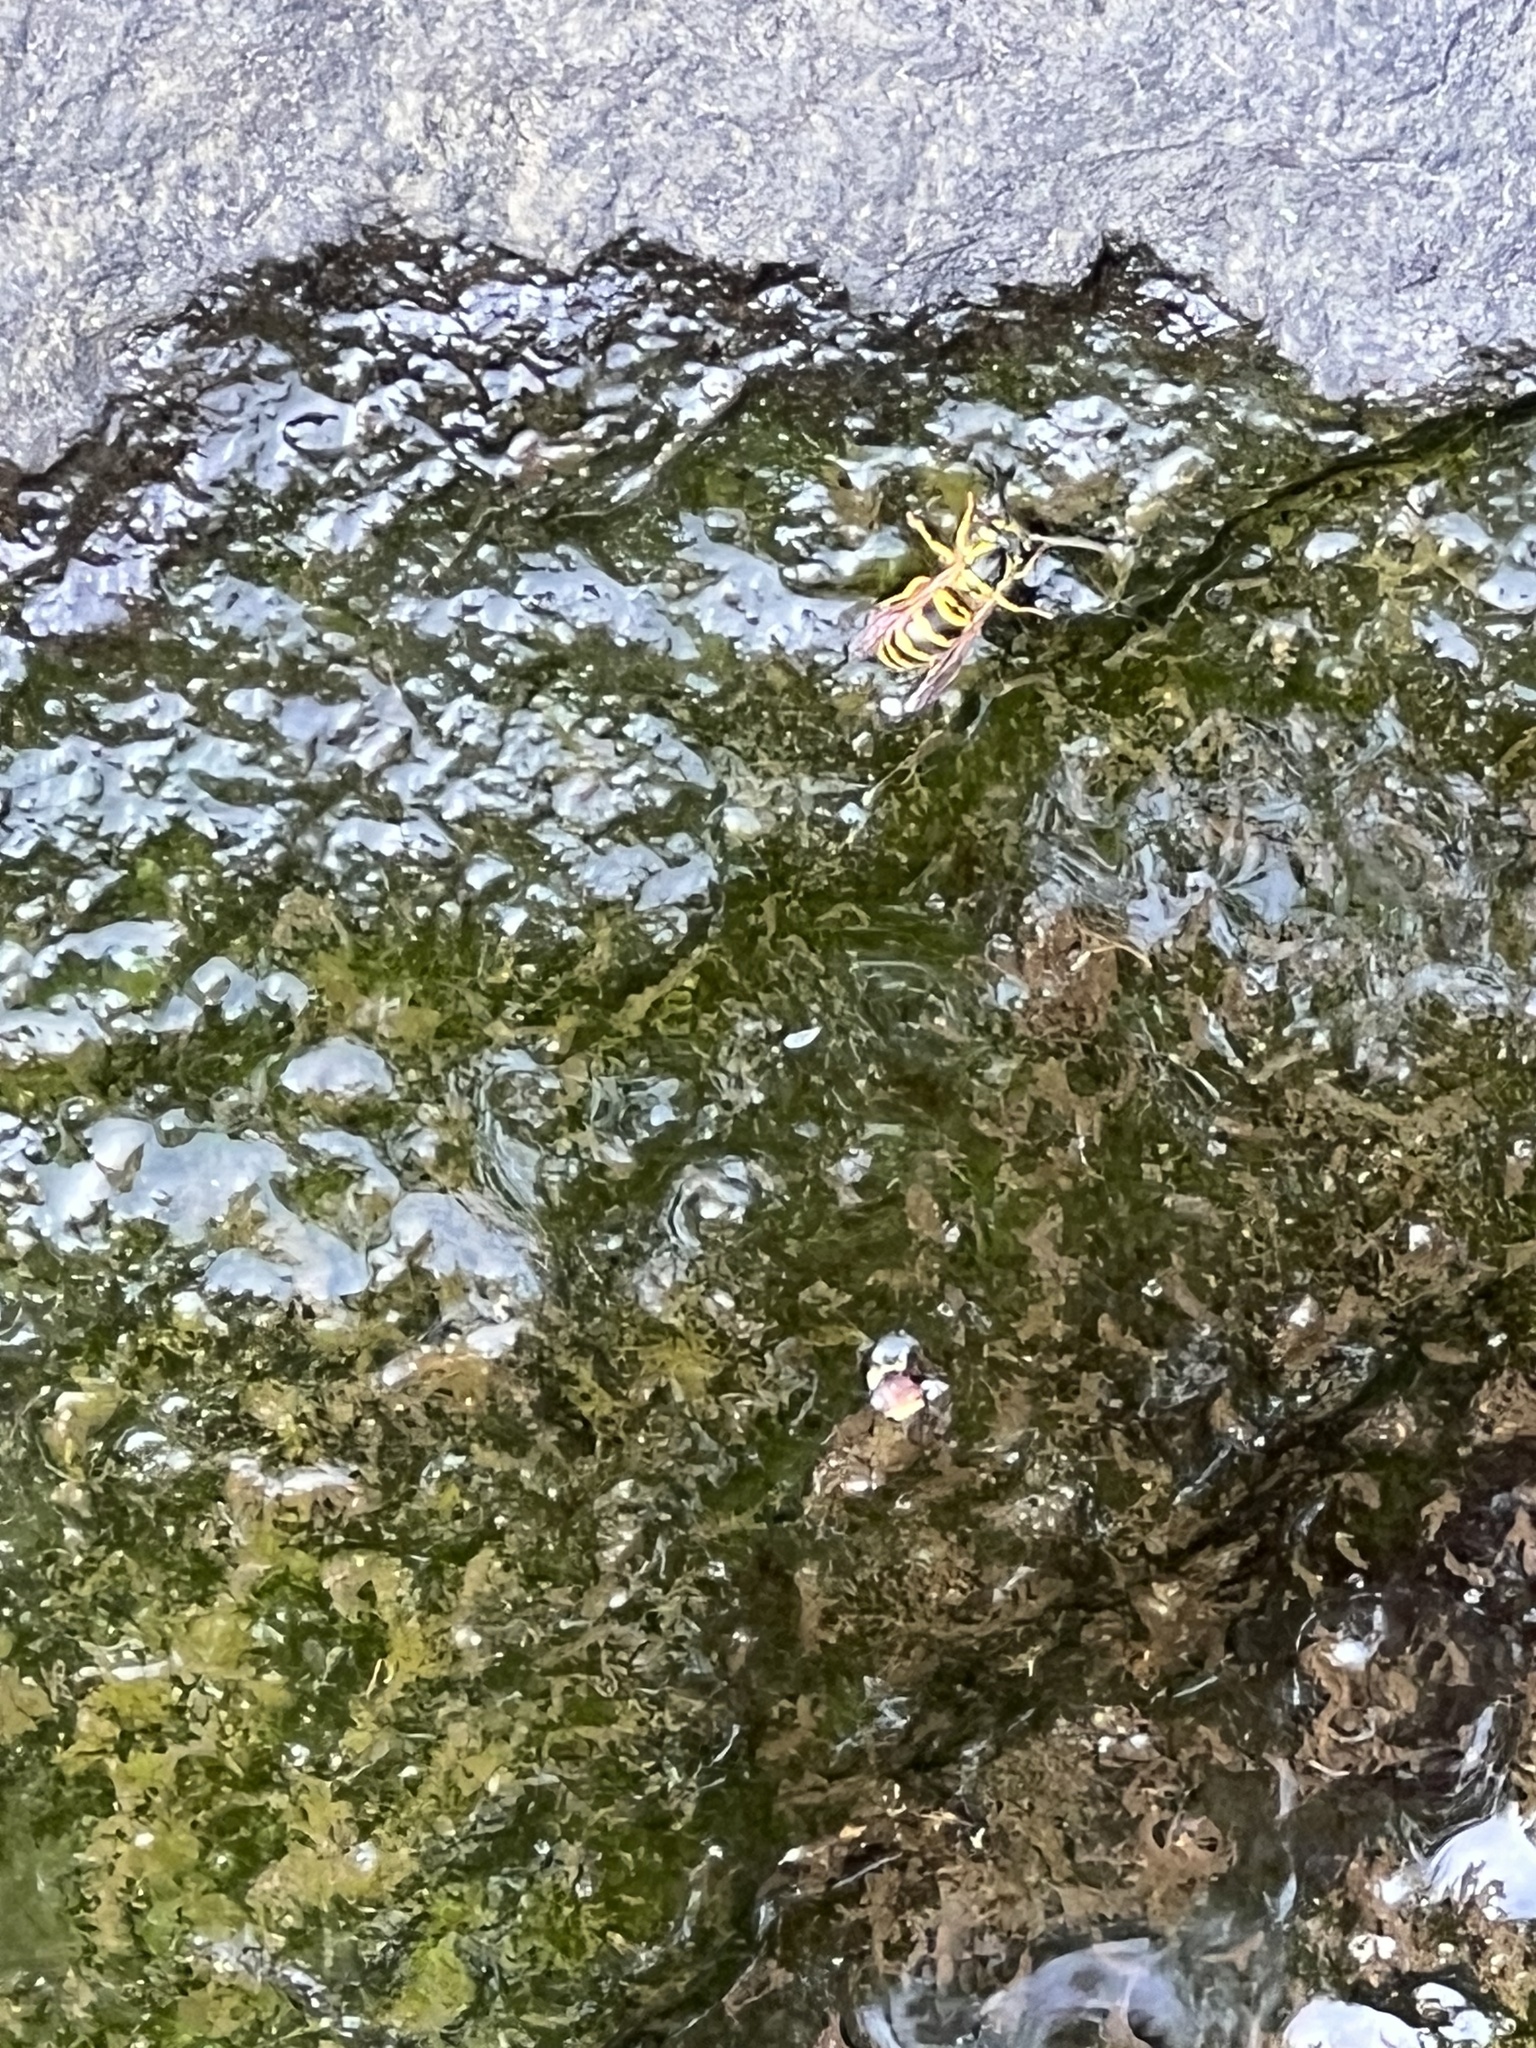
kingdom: Animalia
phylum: Arthropoda
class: Insecta
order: Hymenoptera
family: Vespidae
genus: Vespula
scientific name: Vespula maculifrons
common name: Eastern yellowjacket
